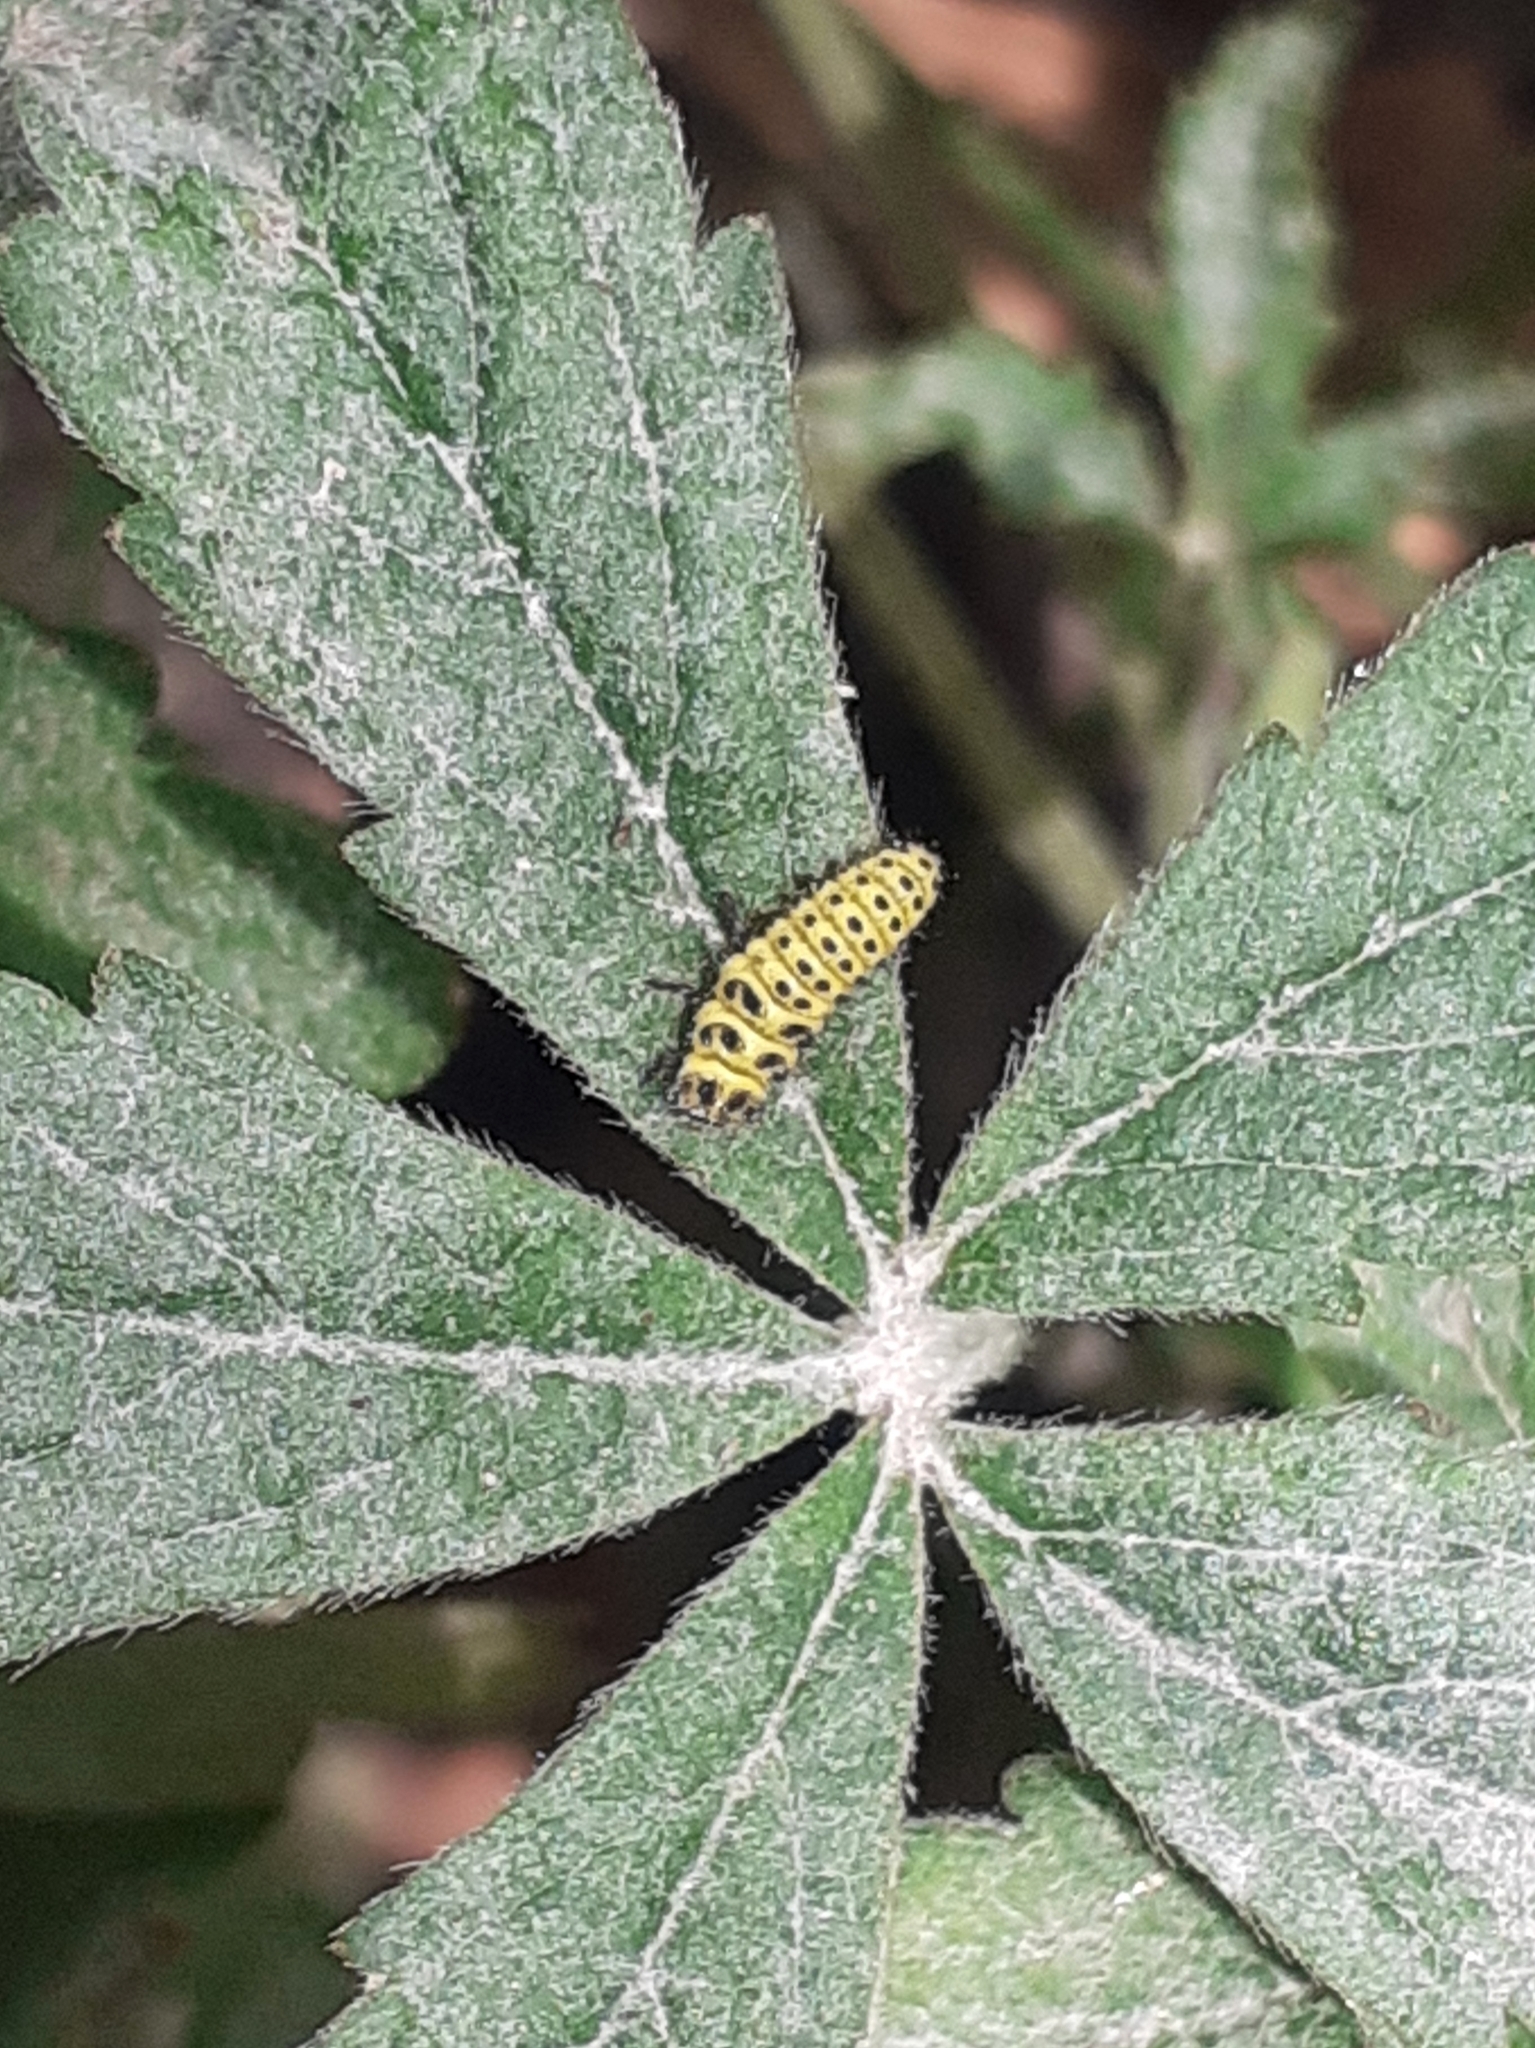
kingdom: Animalia
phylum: Arthropoda
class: Insecta
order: Coleoptera
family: Coccinellidae
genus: Psyllobora
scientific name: Psyllobora vigintiduopunctata
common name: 22-spot ladybird
